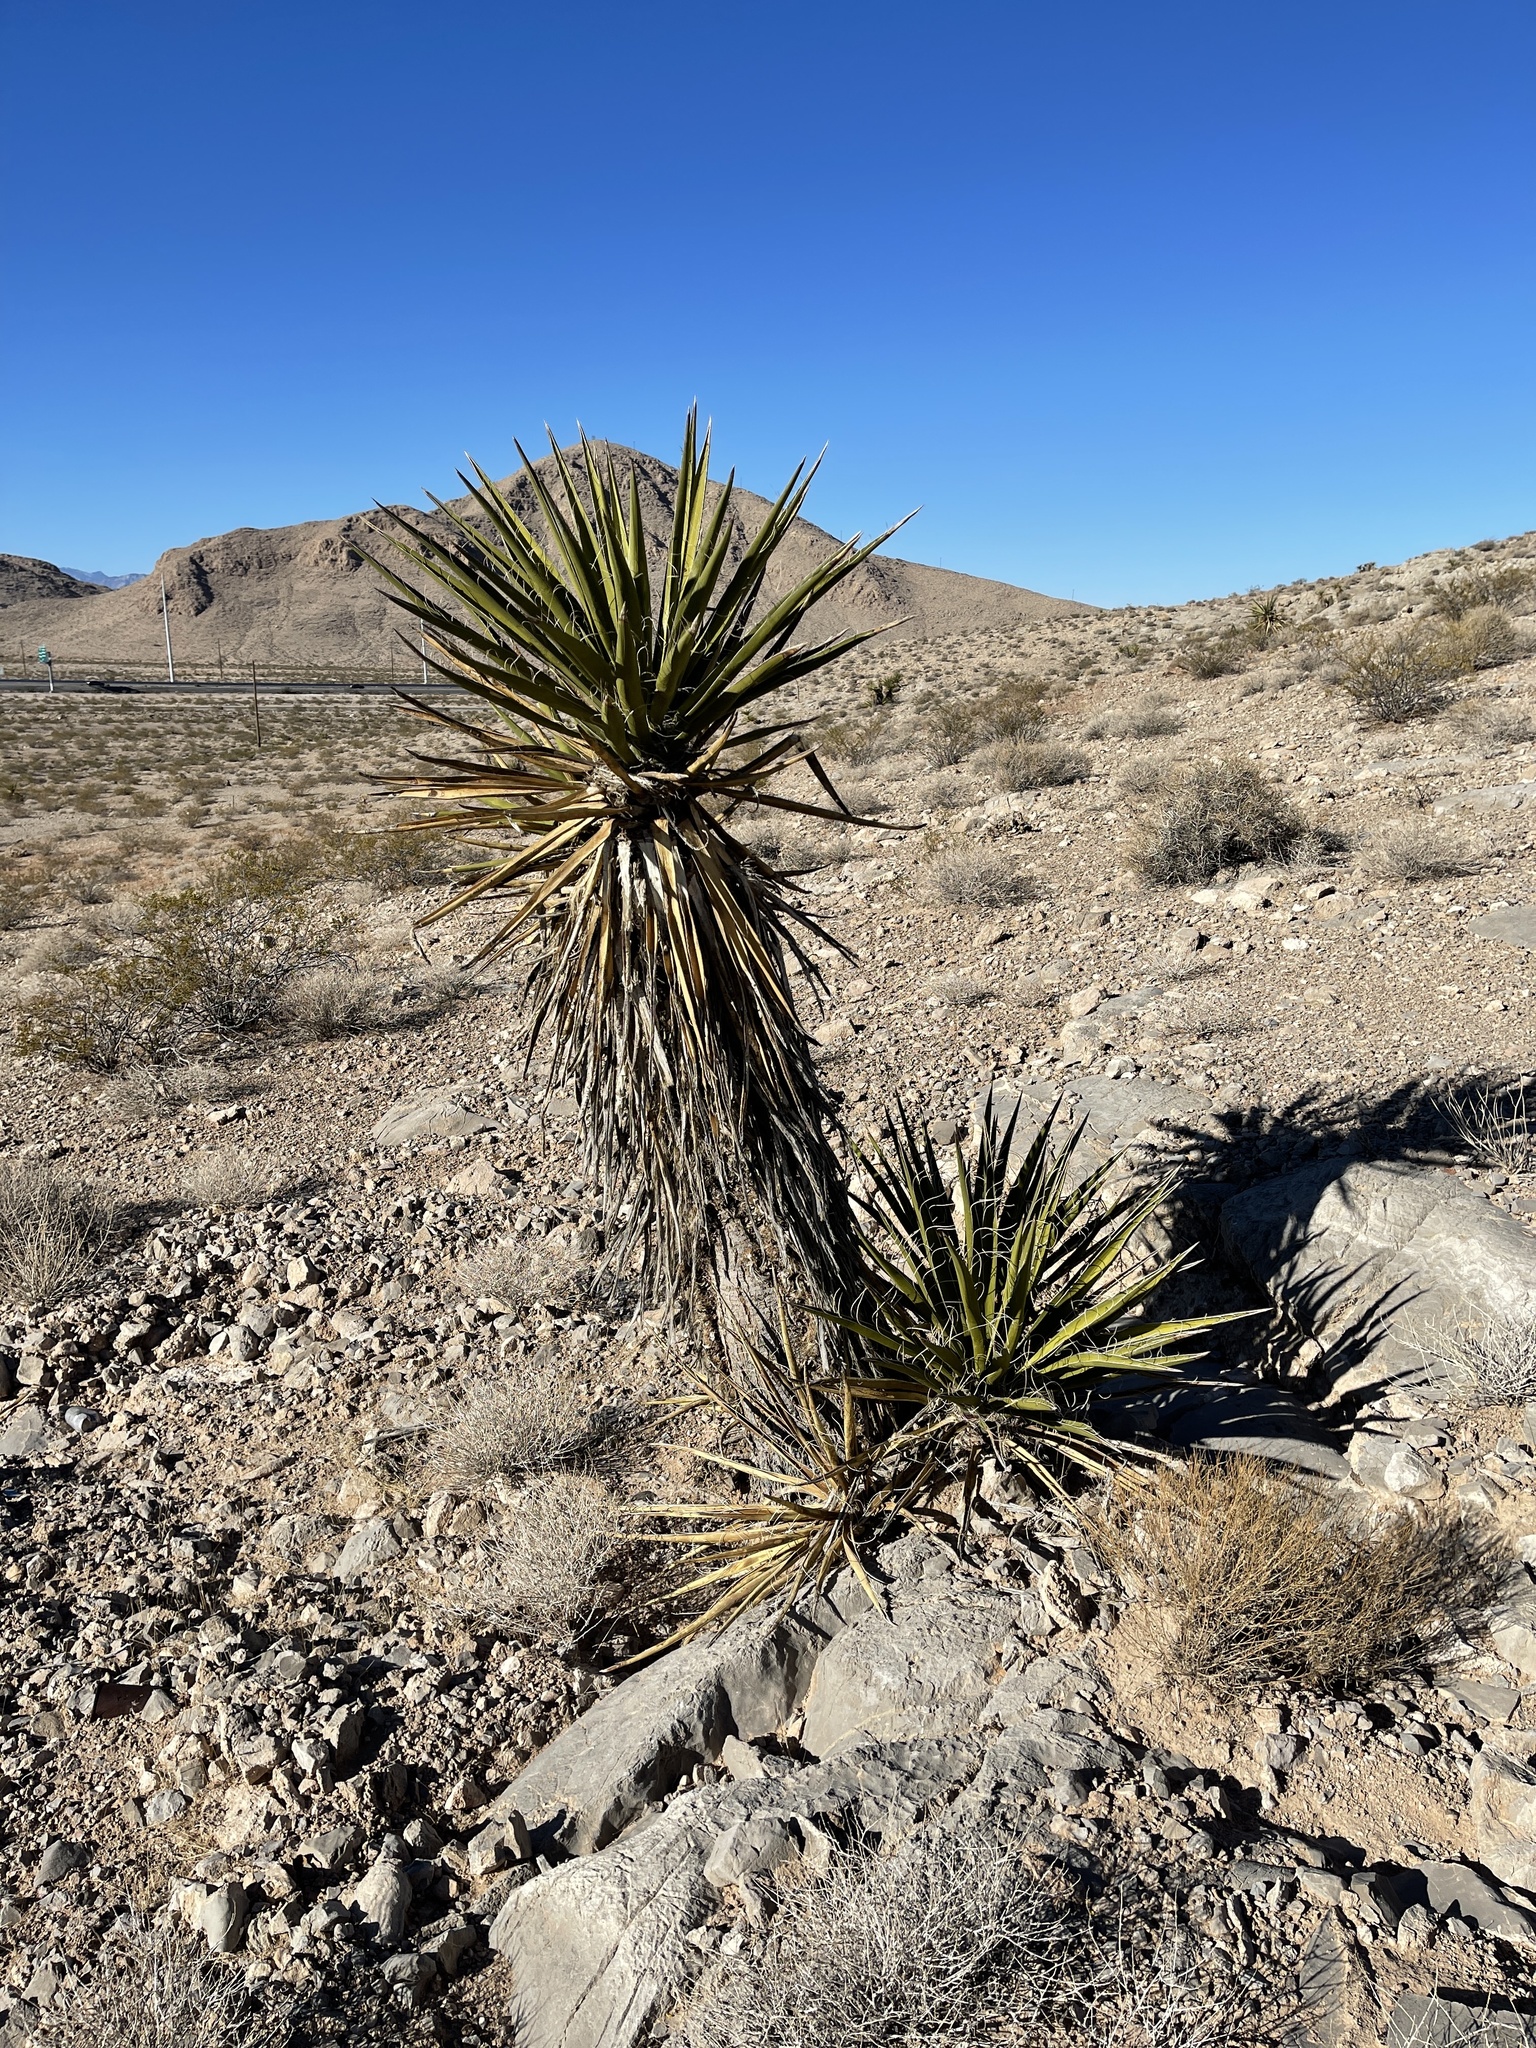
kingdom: Plantae
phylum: Tracheophyta
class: Liliopsida
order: Asparagales
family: Asparagaceae
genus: Yucca
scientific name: Yucca schidigera
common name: Mojave yucca
